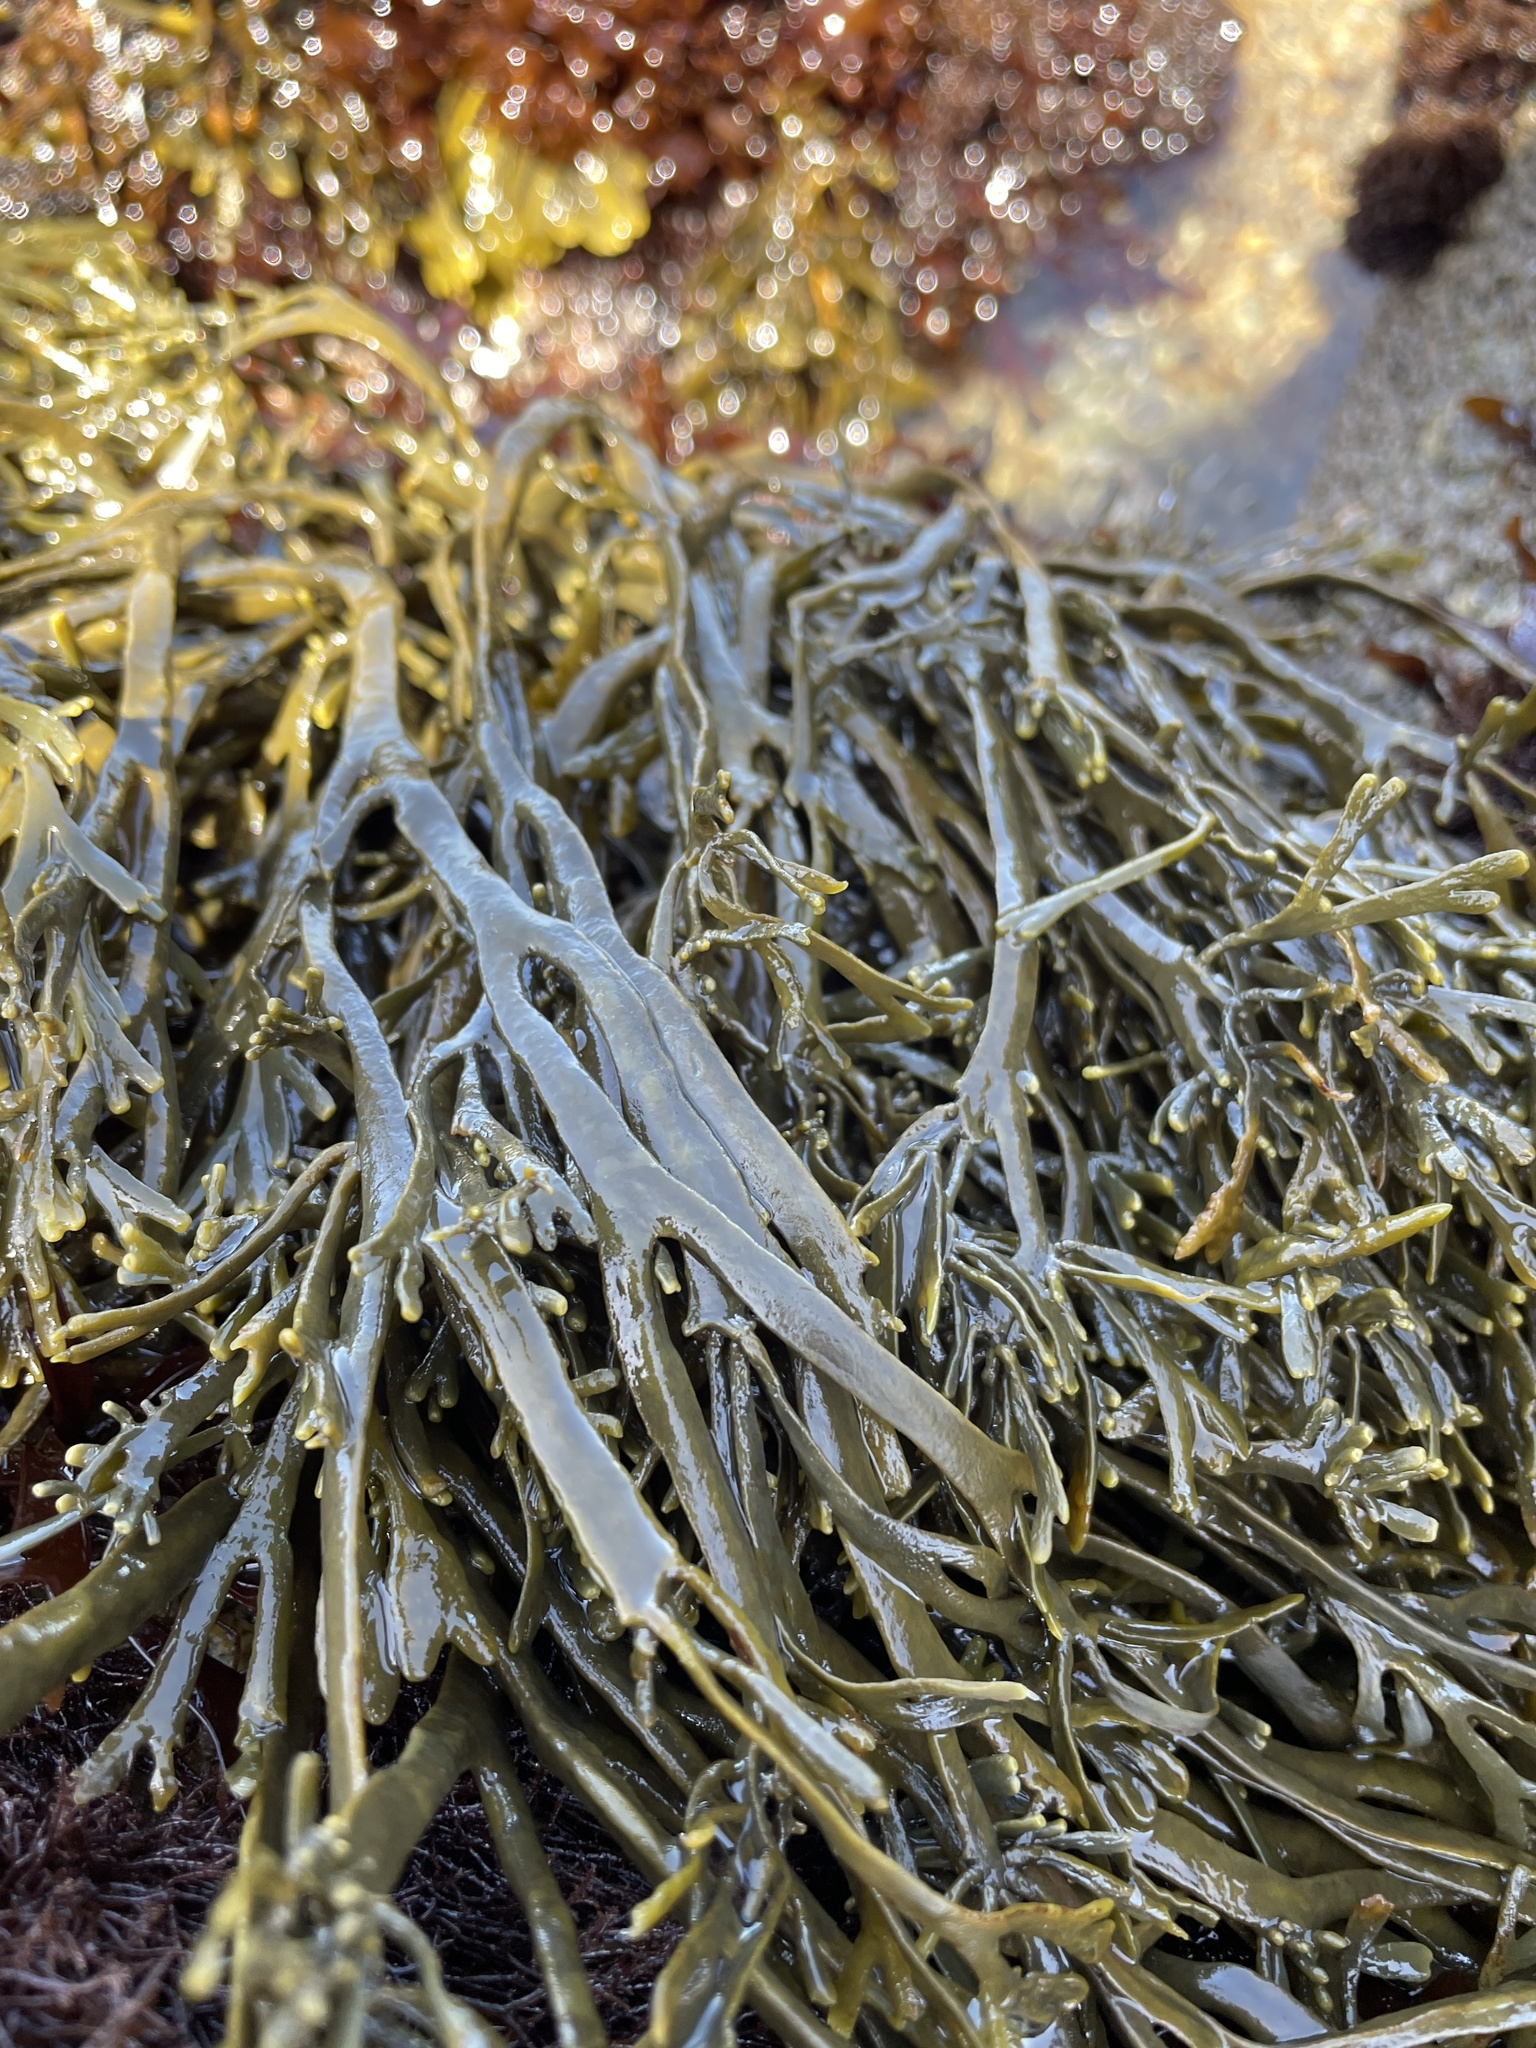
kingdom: Chromista
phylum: Ochrophyta
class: Phaeophyceae
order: Fucales
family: Fucaceae
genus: Silvetia
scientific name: Silvetia
